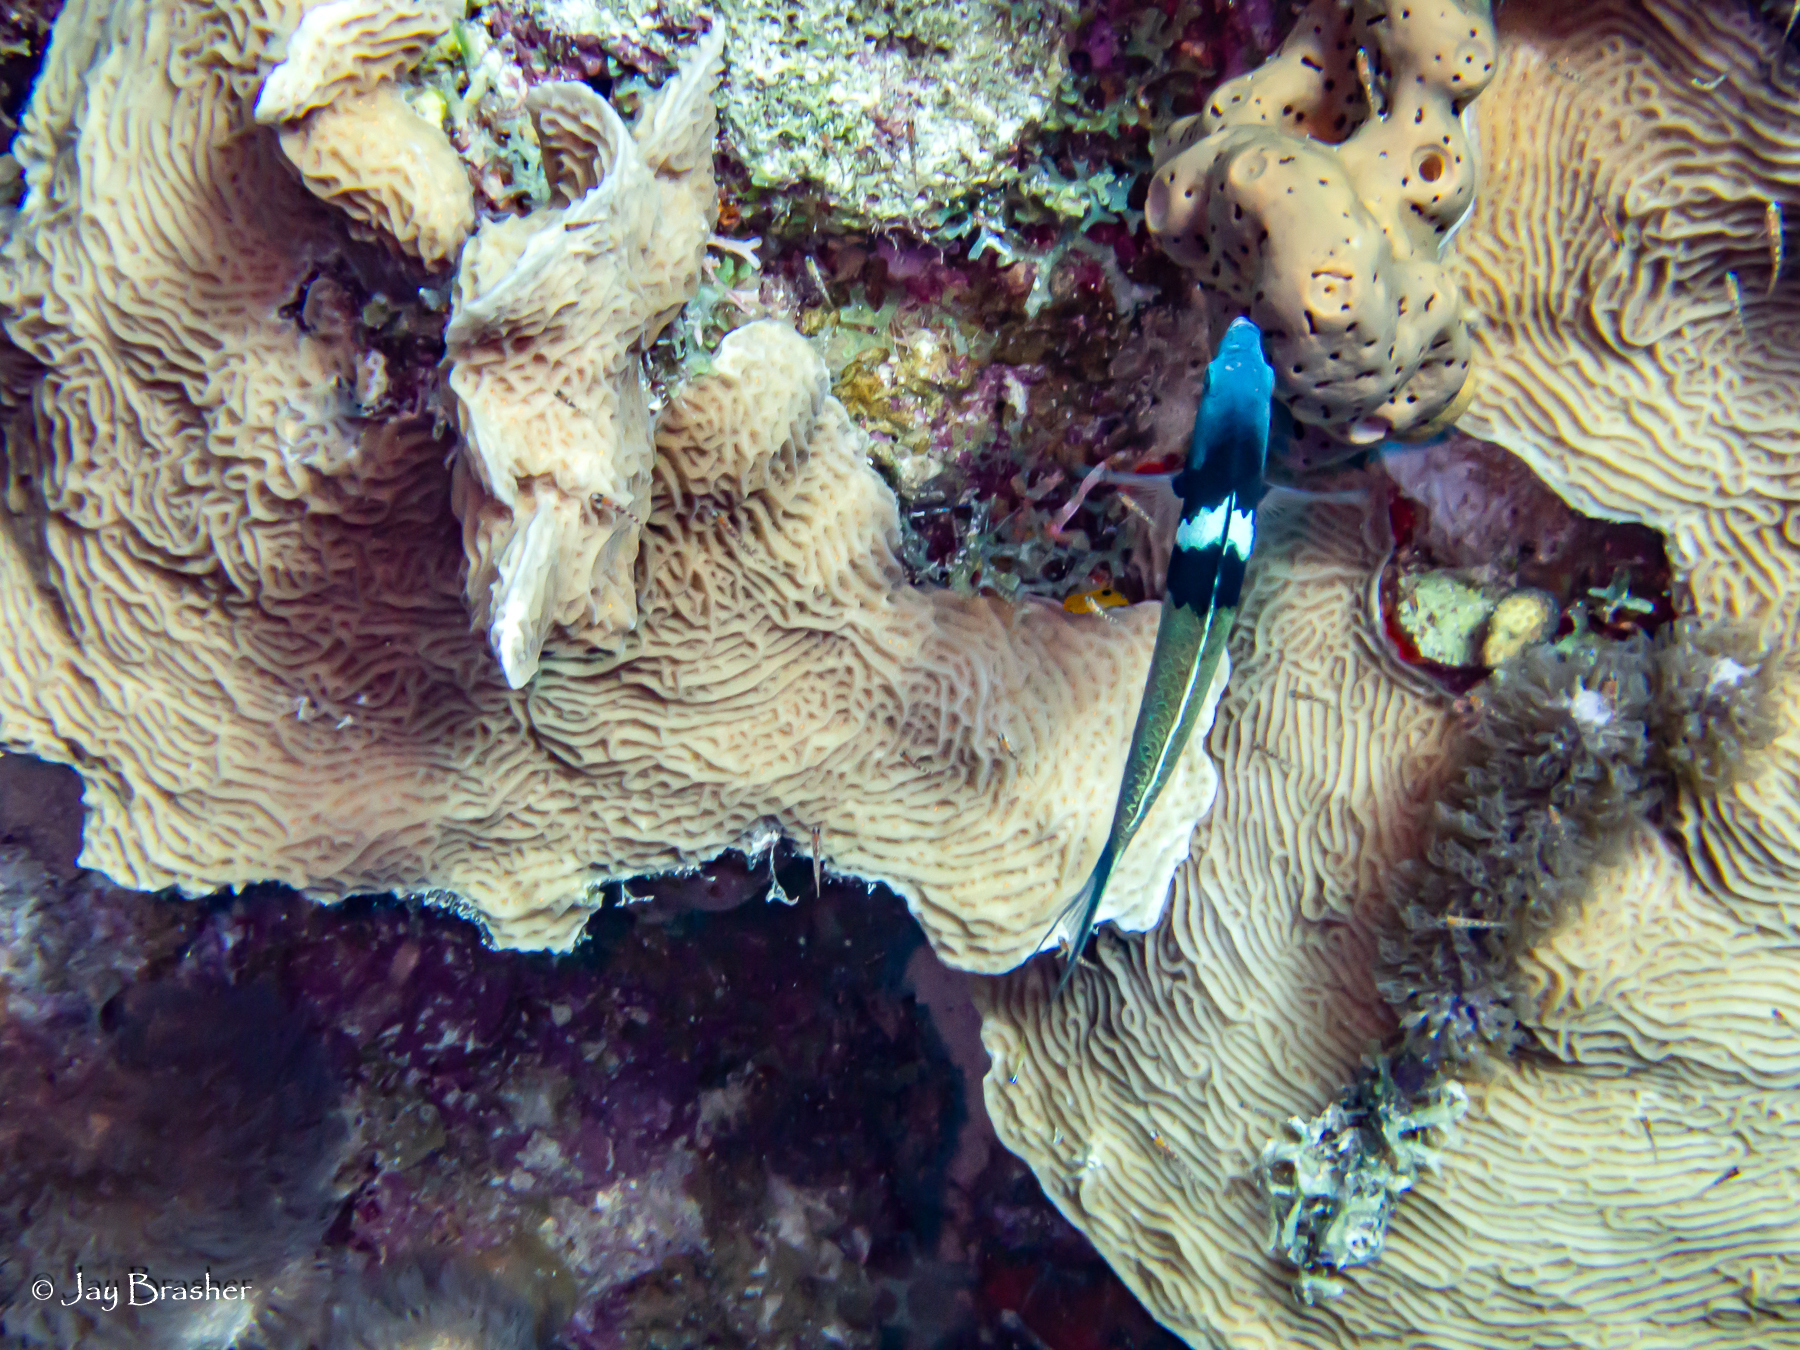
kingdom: Animalia
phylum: Chordata
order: Perciformes
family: Labridae
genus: Thalassoma
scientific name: Thalassoma bifasciatum
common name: Bluehead wrasse
